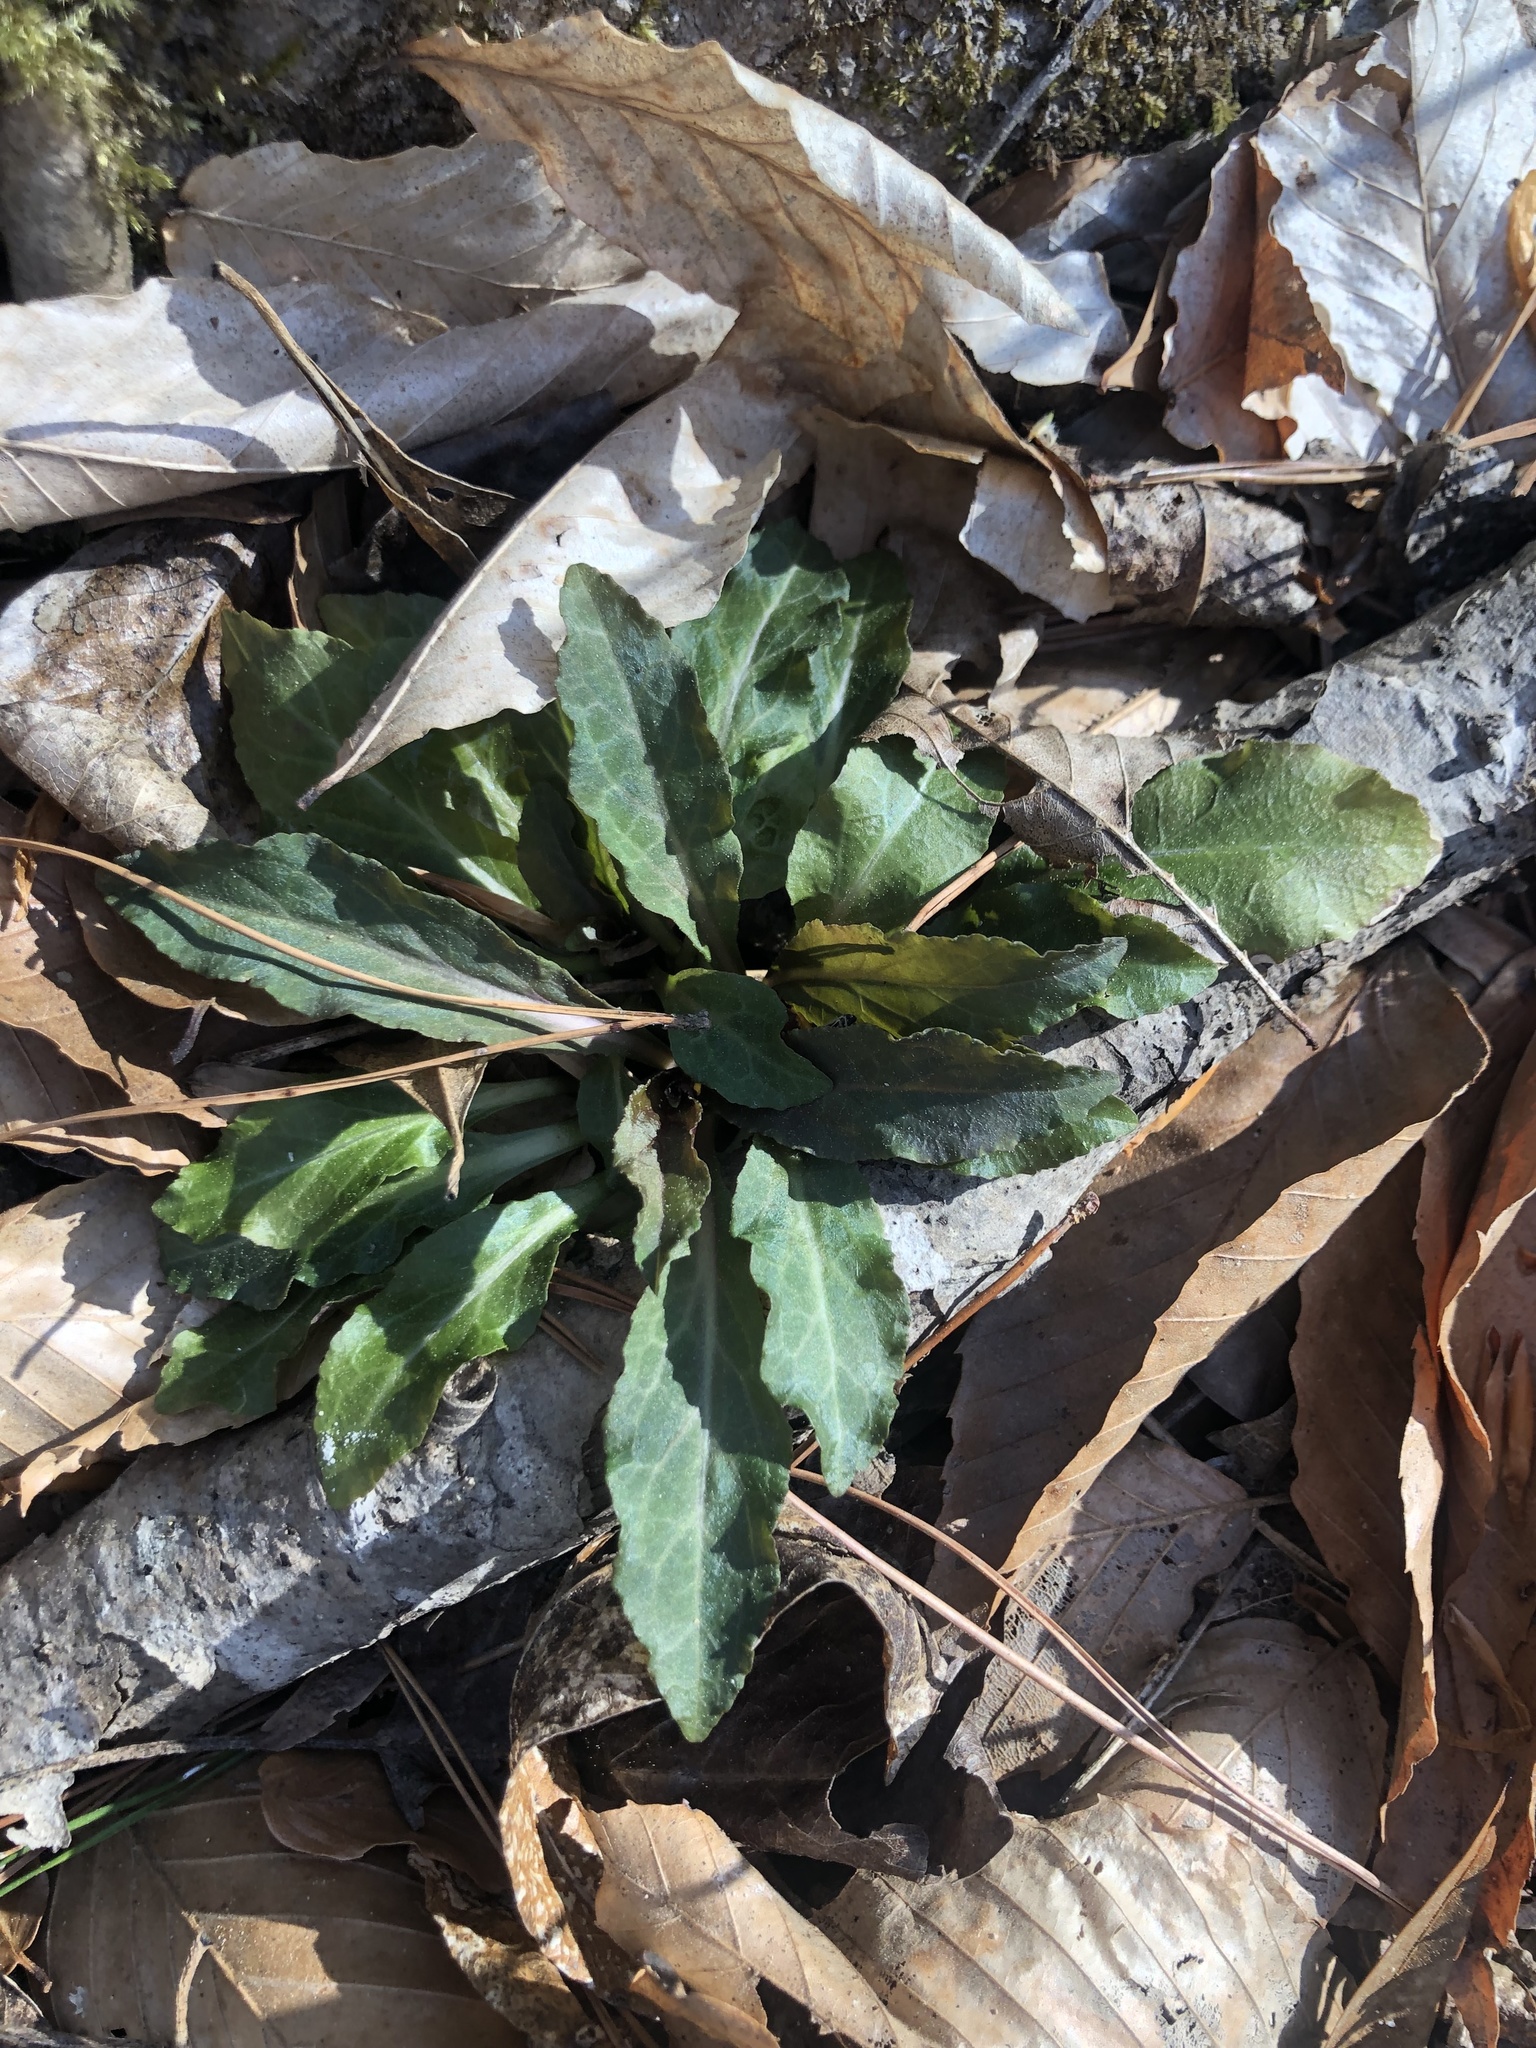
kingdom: Plantae
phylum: Tracheophyta
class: Magnoliopsida
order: Asterales
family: Campanulaceae
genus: Lobelia
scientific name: Lobelia cardinalis
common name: Cardinal flower
